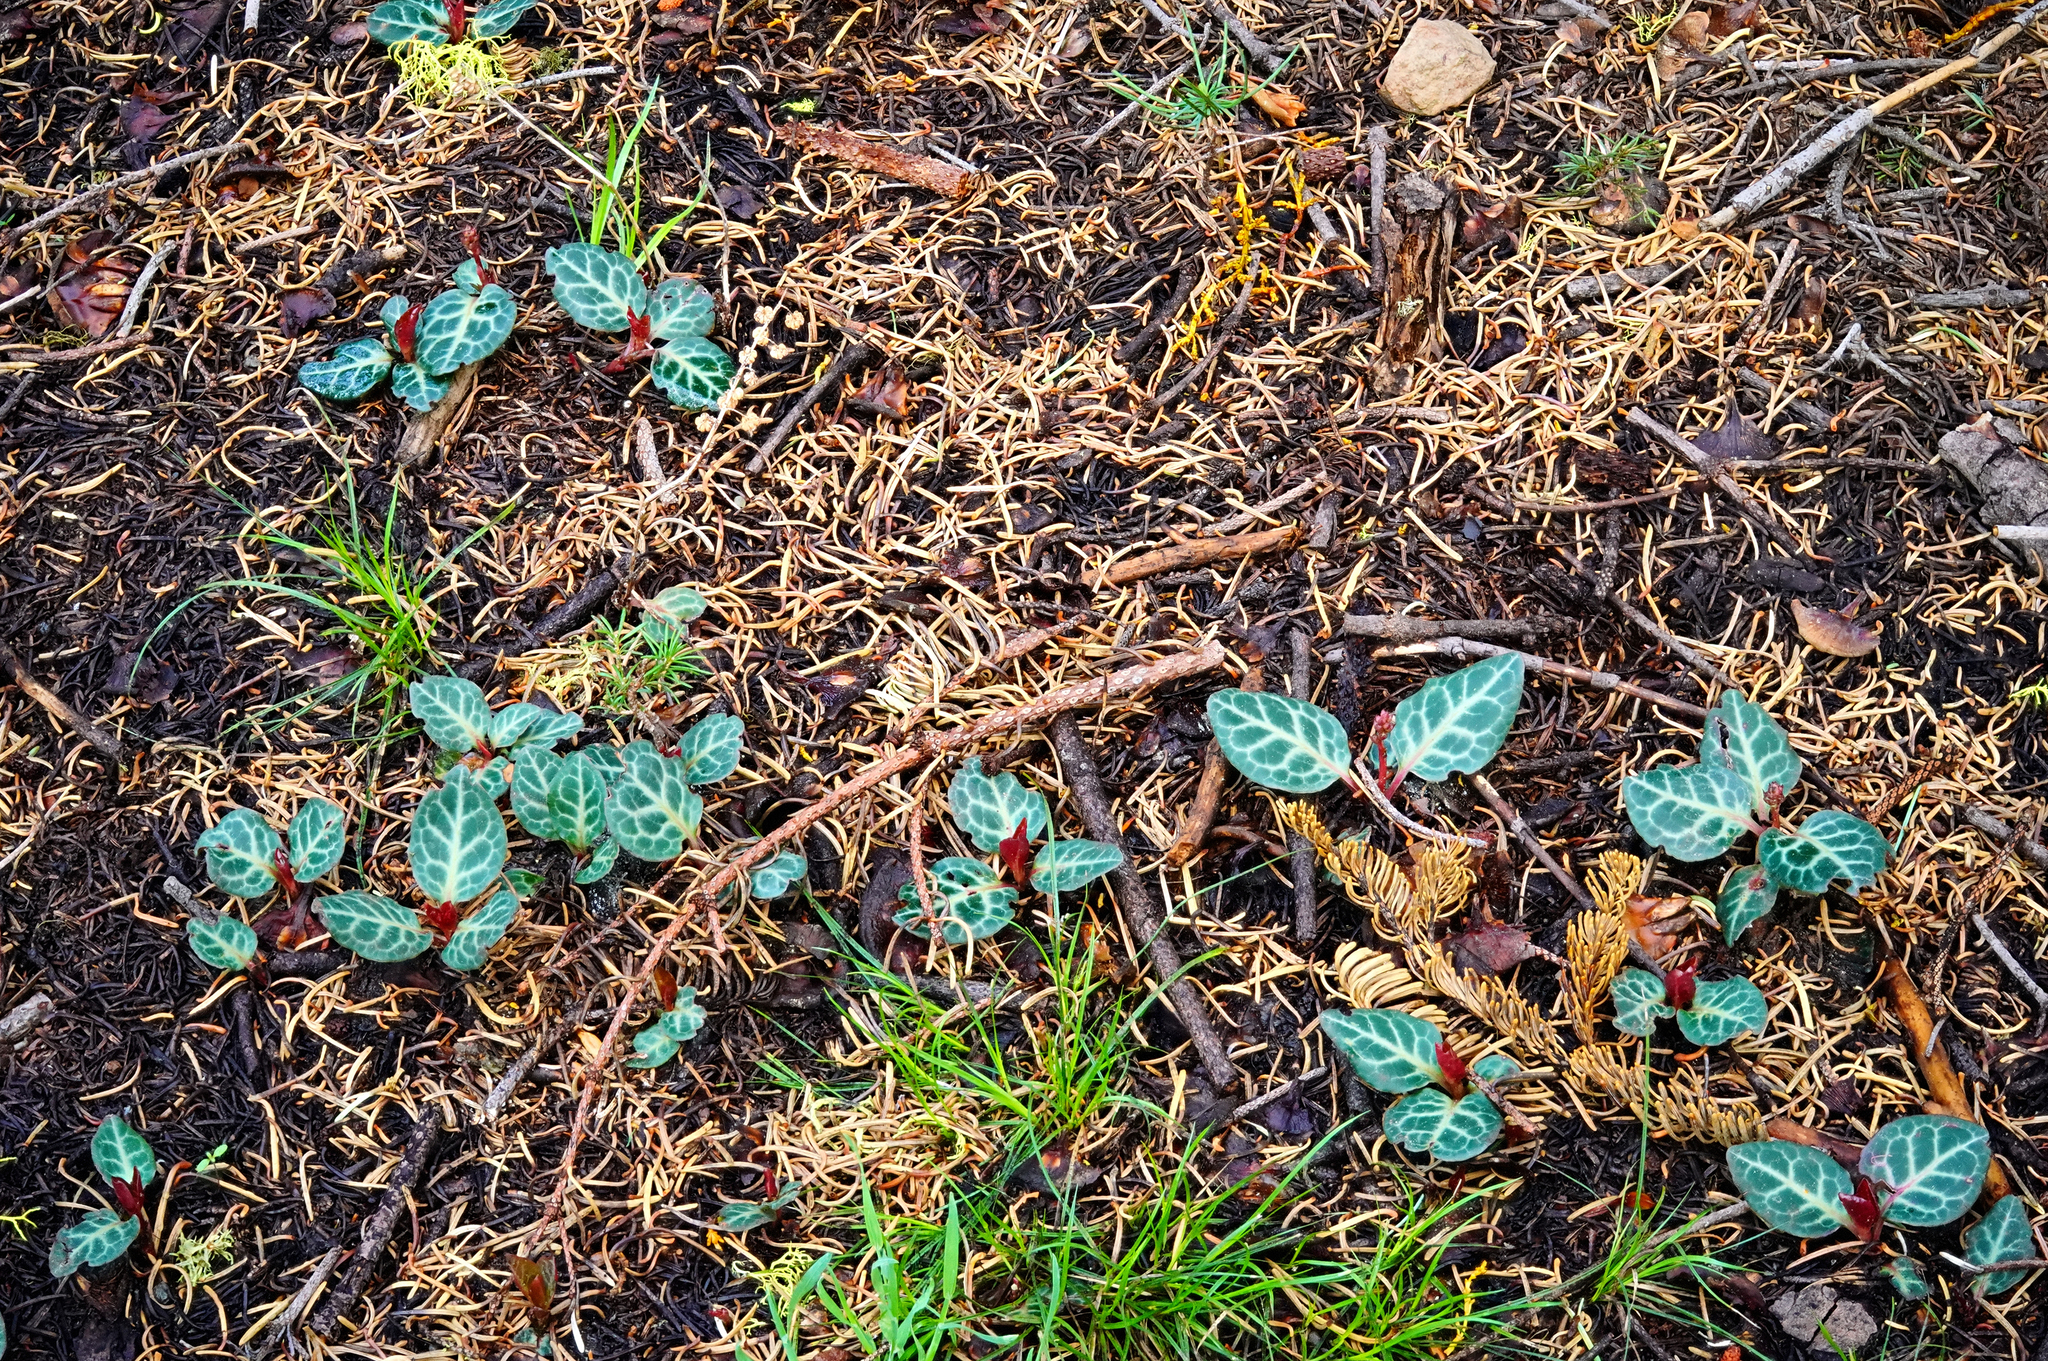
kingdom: Plantae
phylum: Tracheophyta
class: Magnoliopsida
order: Ericales
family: Ericaceae
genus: Pyrola
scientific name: Pyrola picta
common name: White-vein wintergreen
